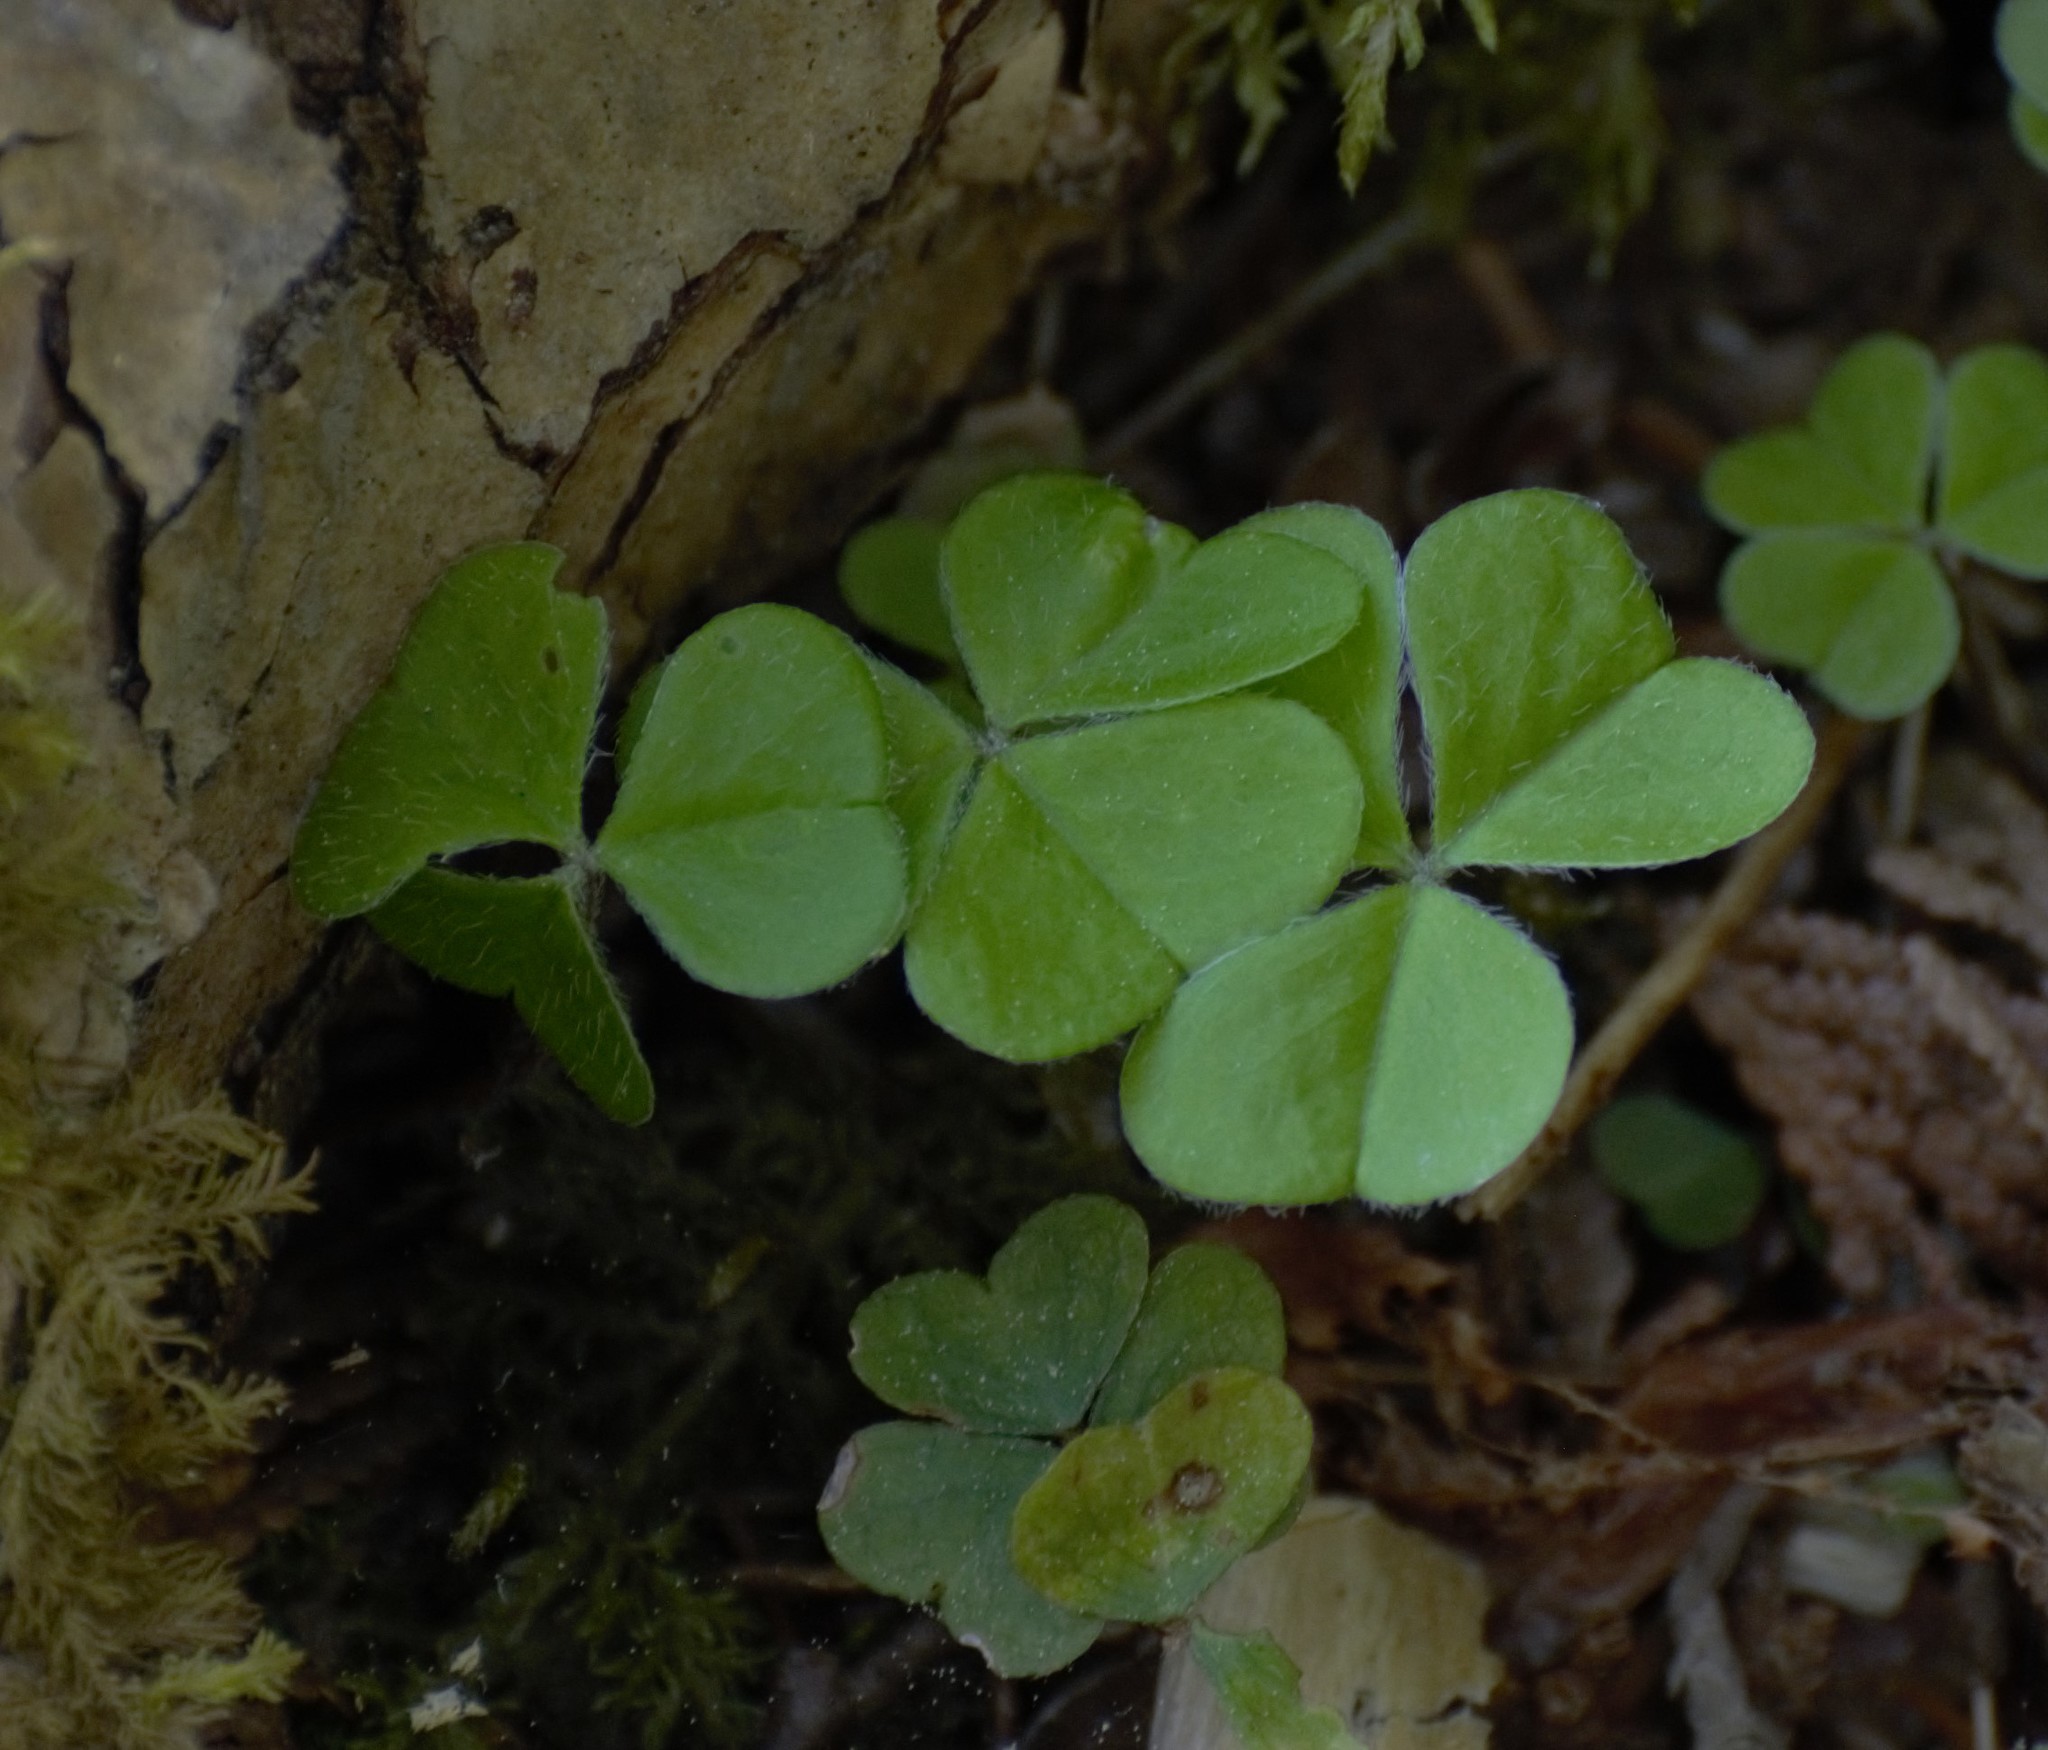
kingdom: Plantae
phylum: Tracheophyta
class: Magnoliopsida
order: Oxalidales
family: Oxalidaceae
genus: Oxalis
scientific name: Oxalis montana
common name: American wood-sorrel
